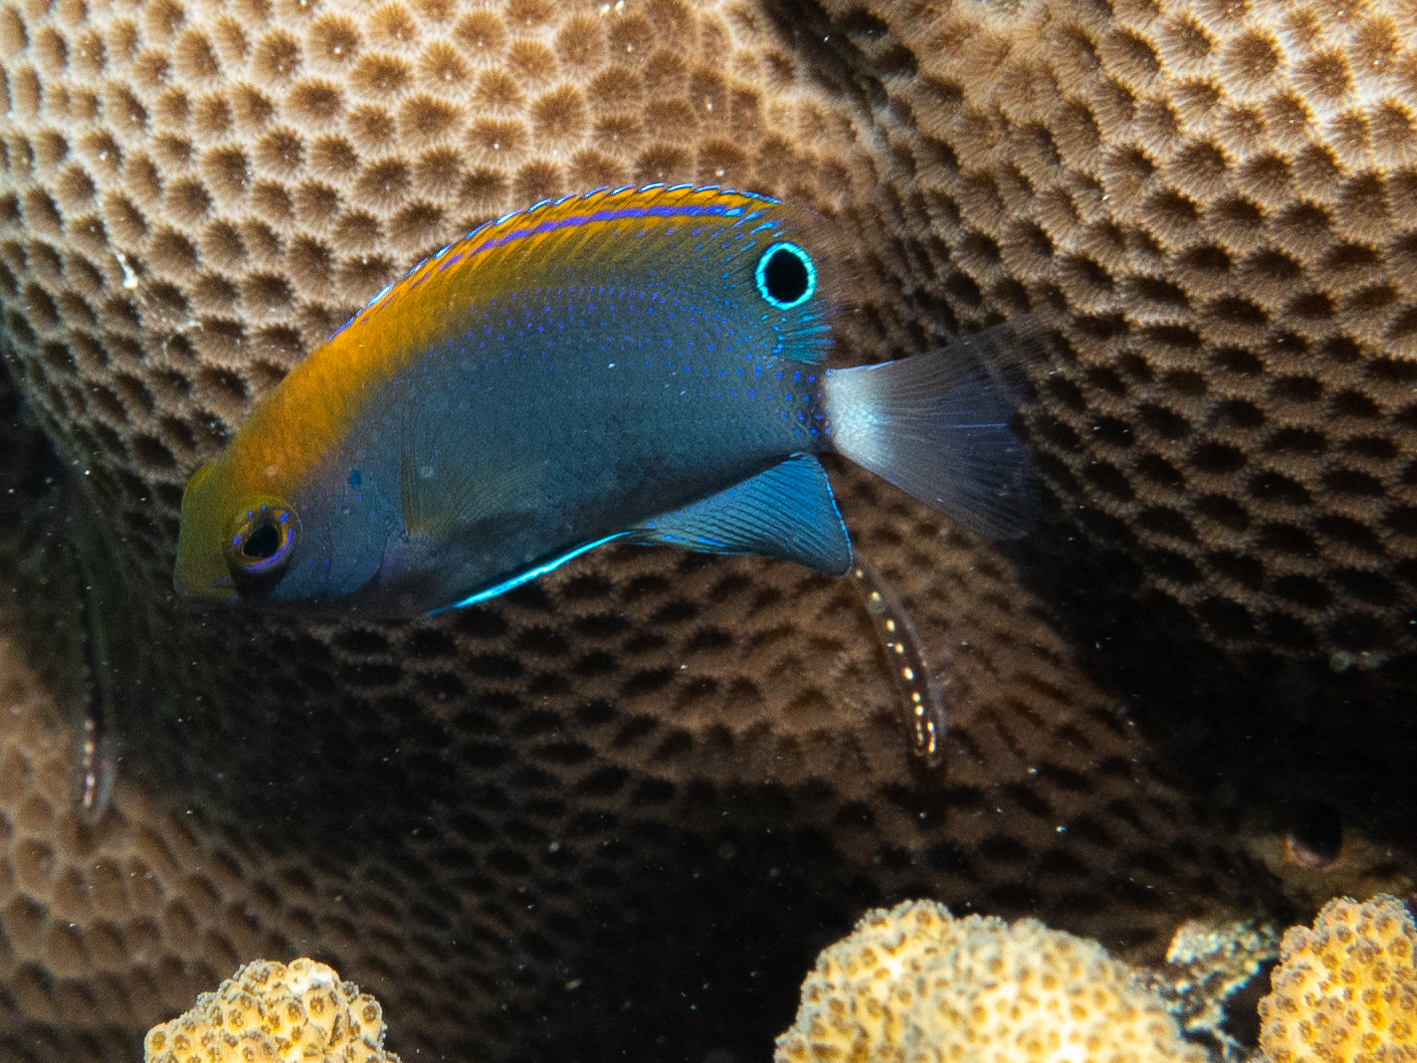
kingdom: Animalia
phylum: Chordata
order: Perciformes
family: Pomacentridae
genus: Pomacentrus
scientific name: Pomacentrus chrysurus
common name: White-tail damsel
